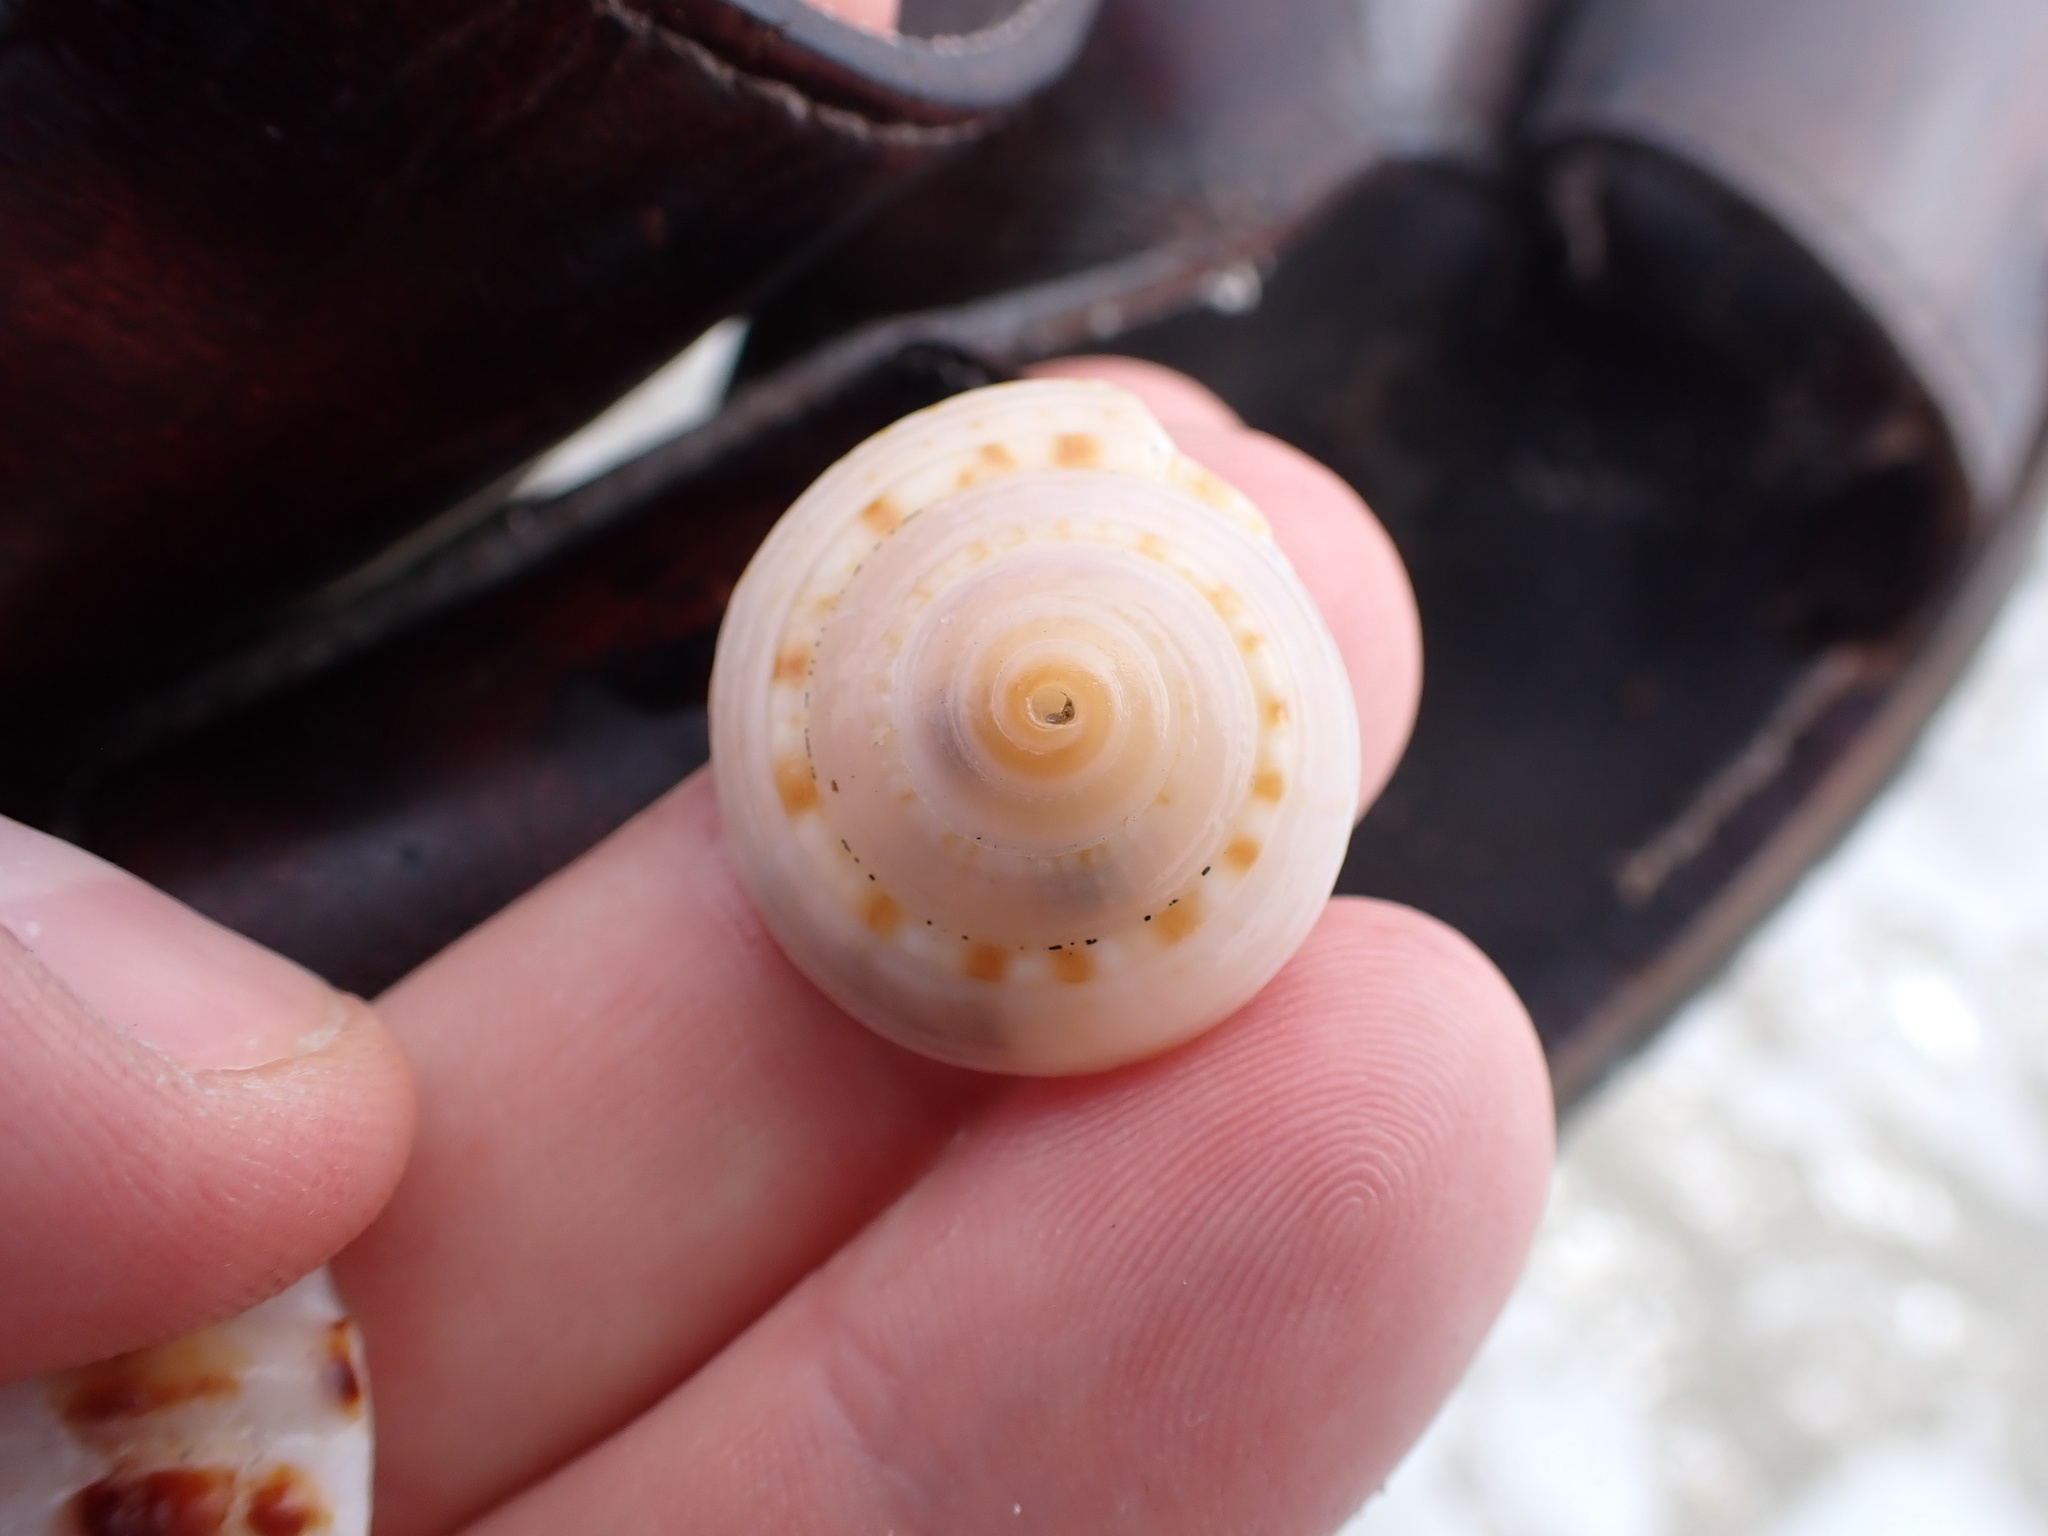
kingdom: Animalia
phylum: Mollusca
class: Gastropoda
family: Architectonicidae
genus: Architectonica
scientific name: Architectonica nobilis
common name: Common sundial
